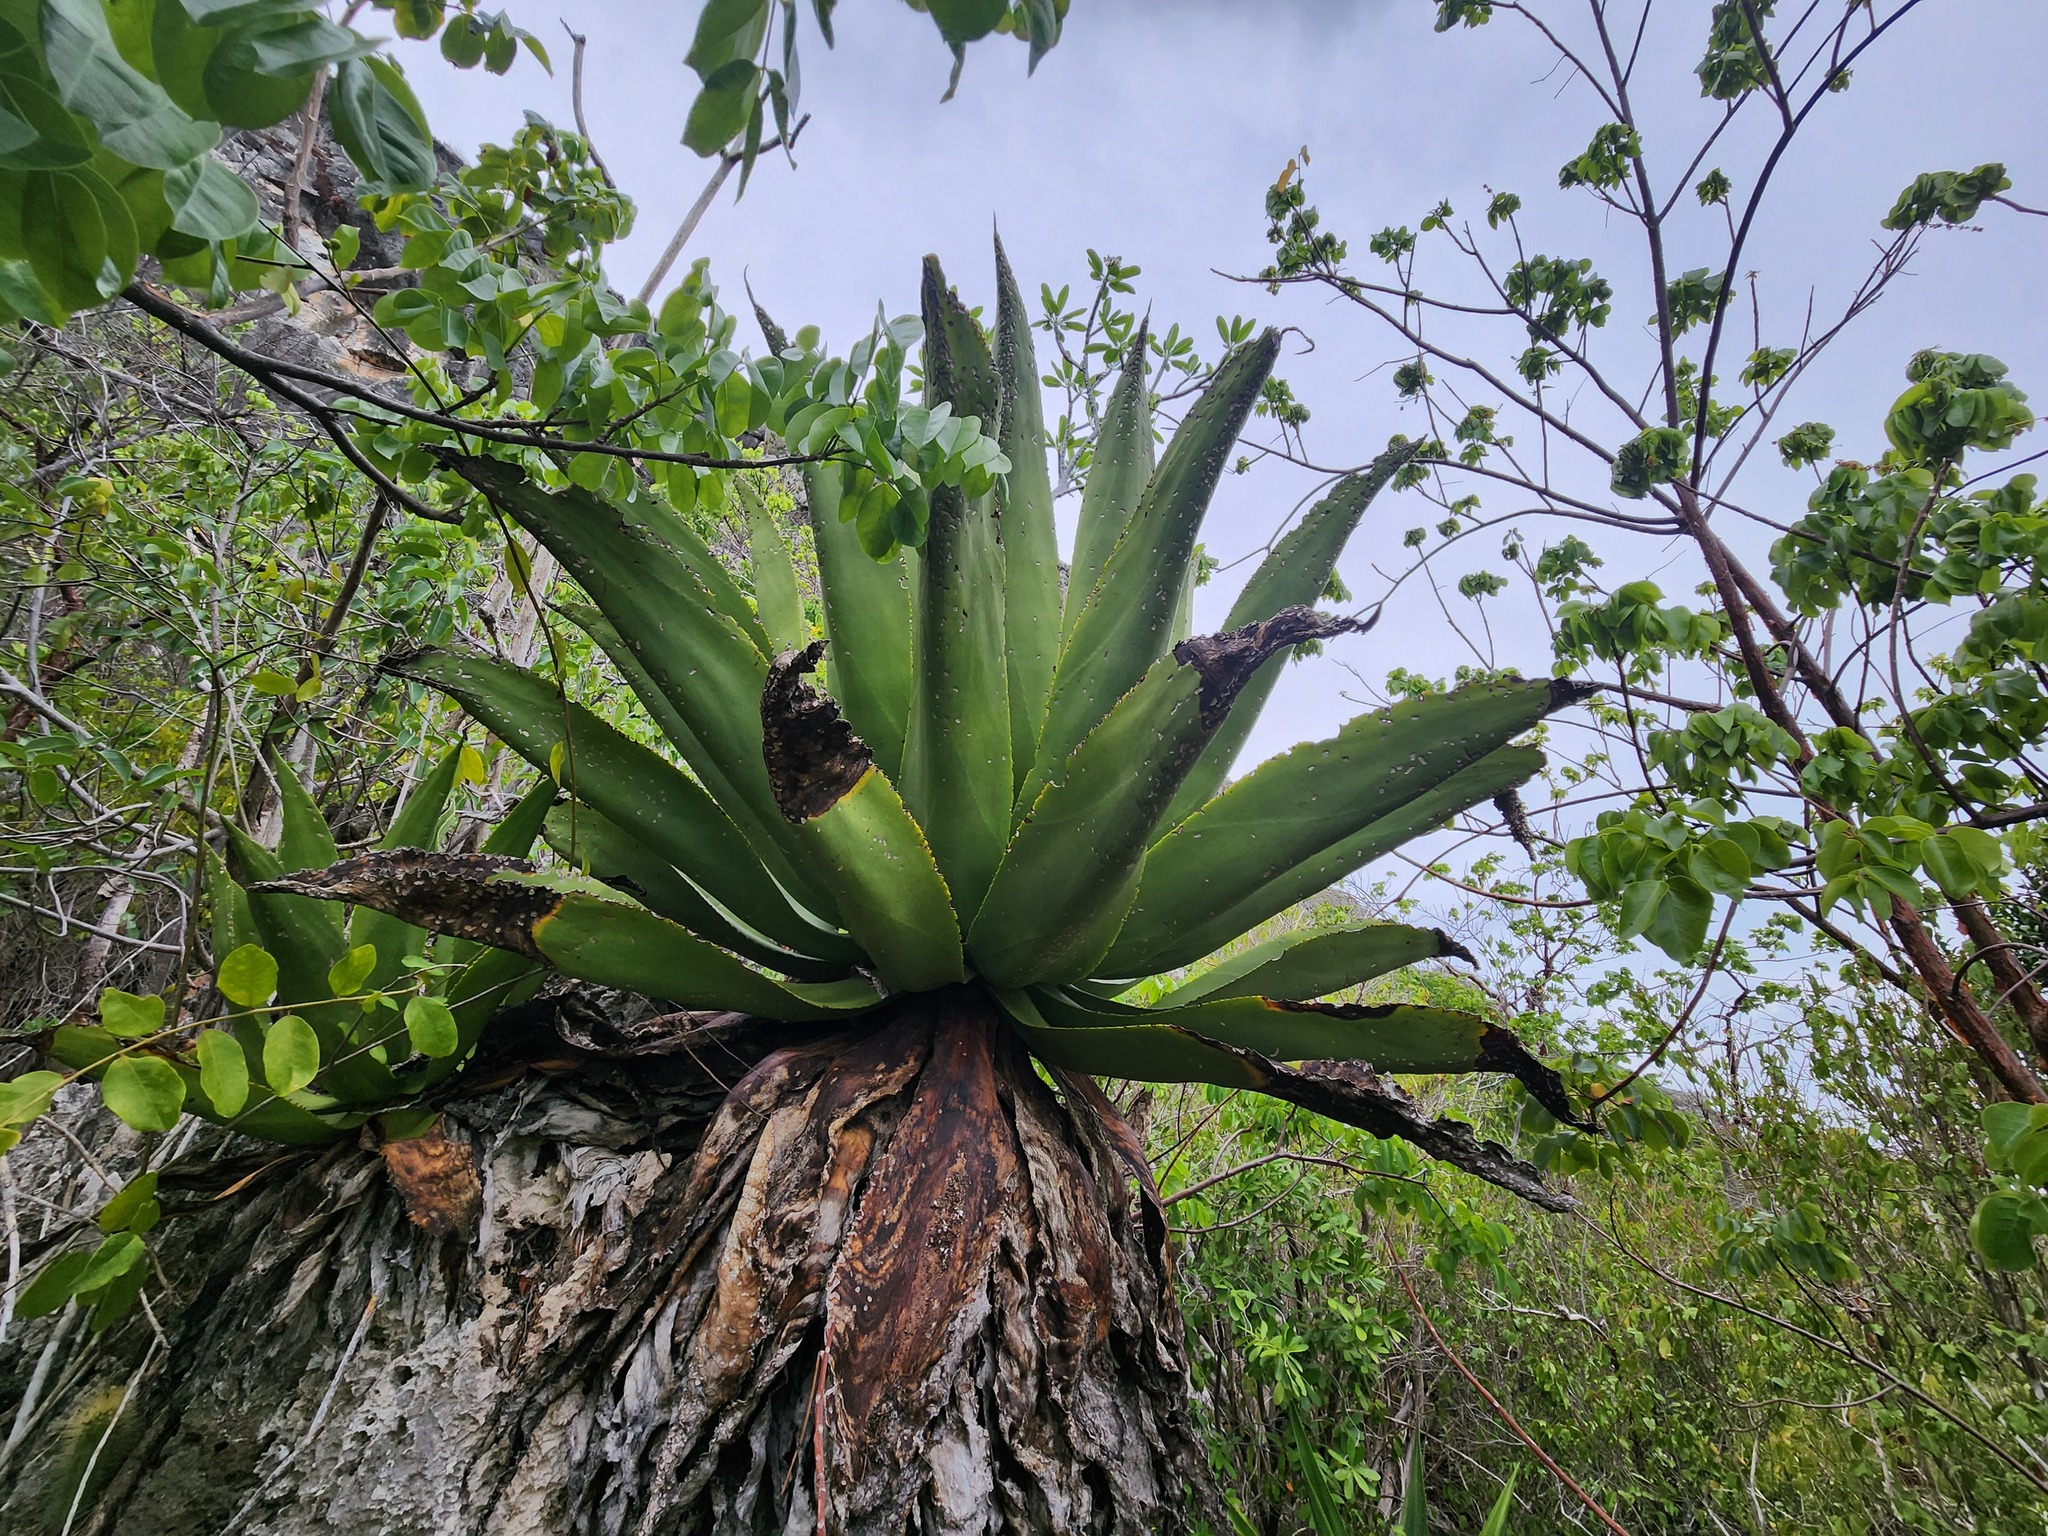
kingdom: Plantae
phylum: Tracheophyta
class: Liliopsida
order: Asparagales
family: Asparagaceae
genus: Agave
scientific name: Agave caymanensis
